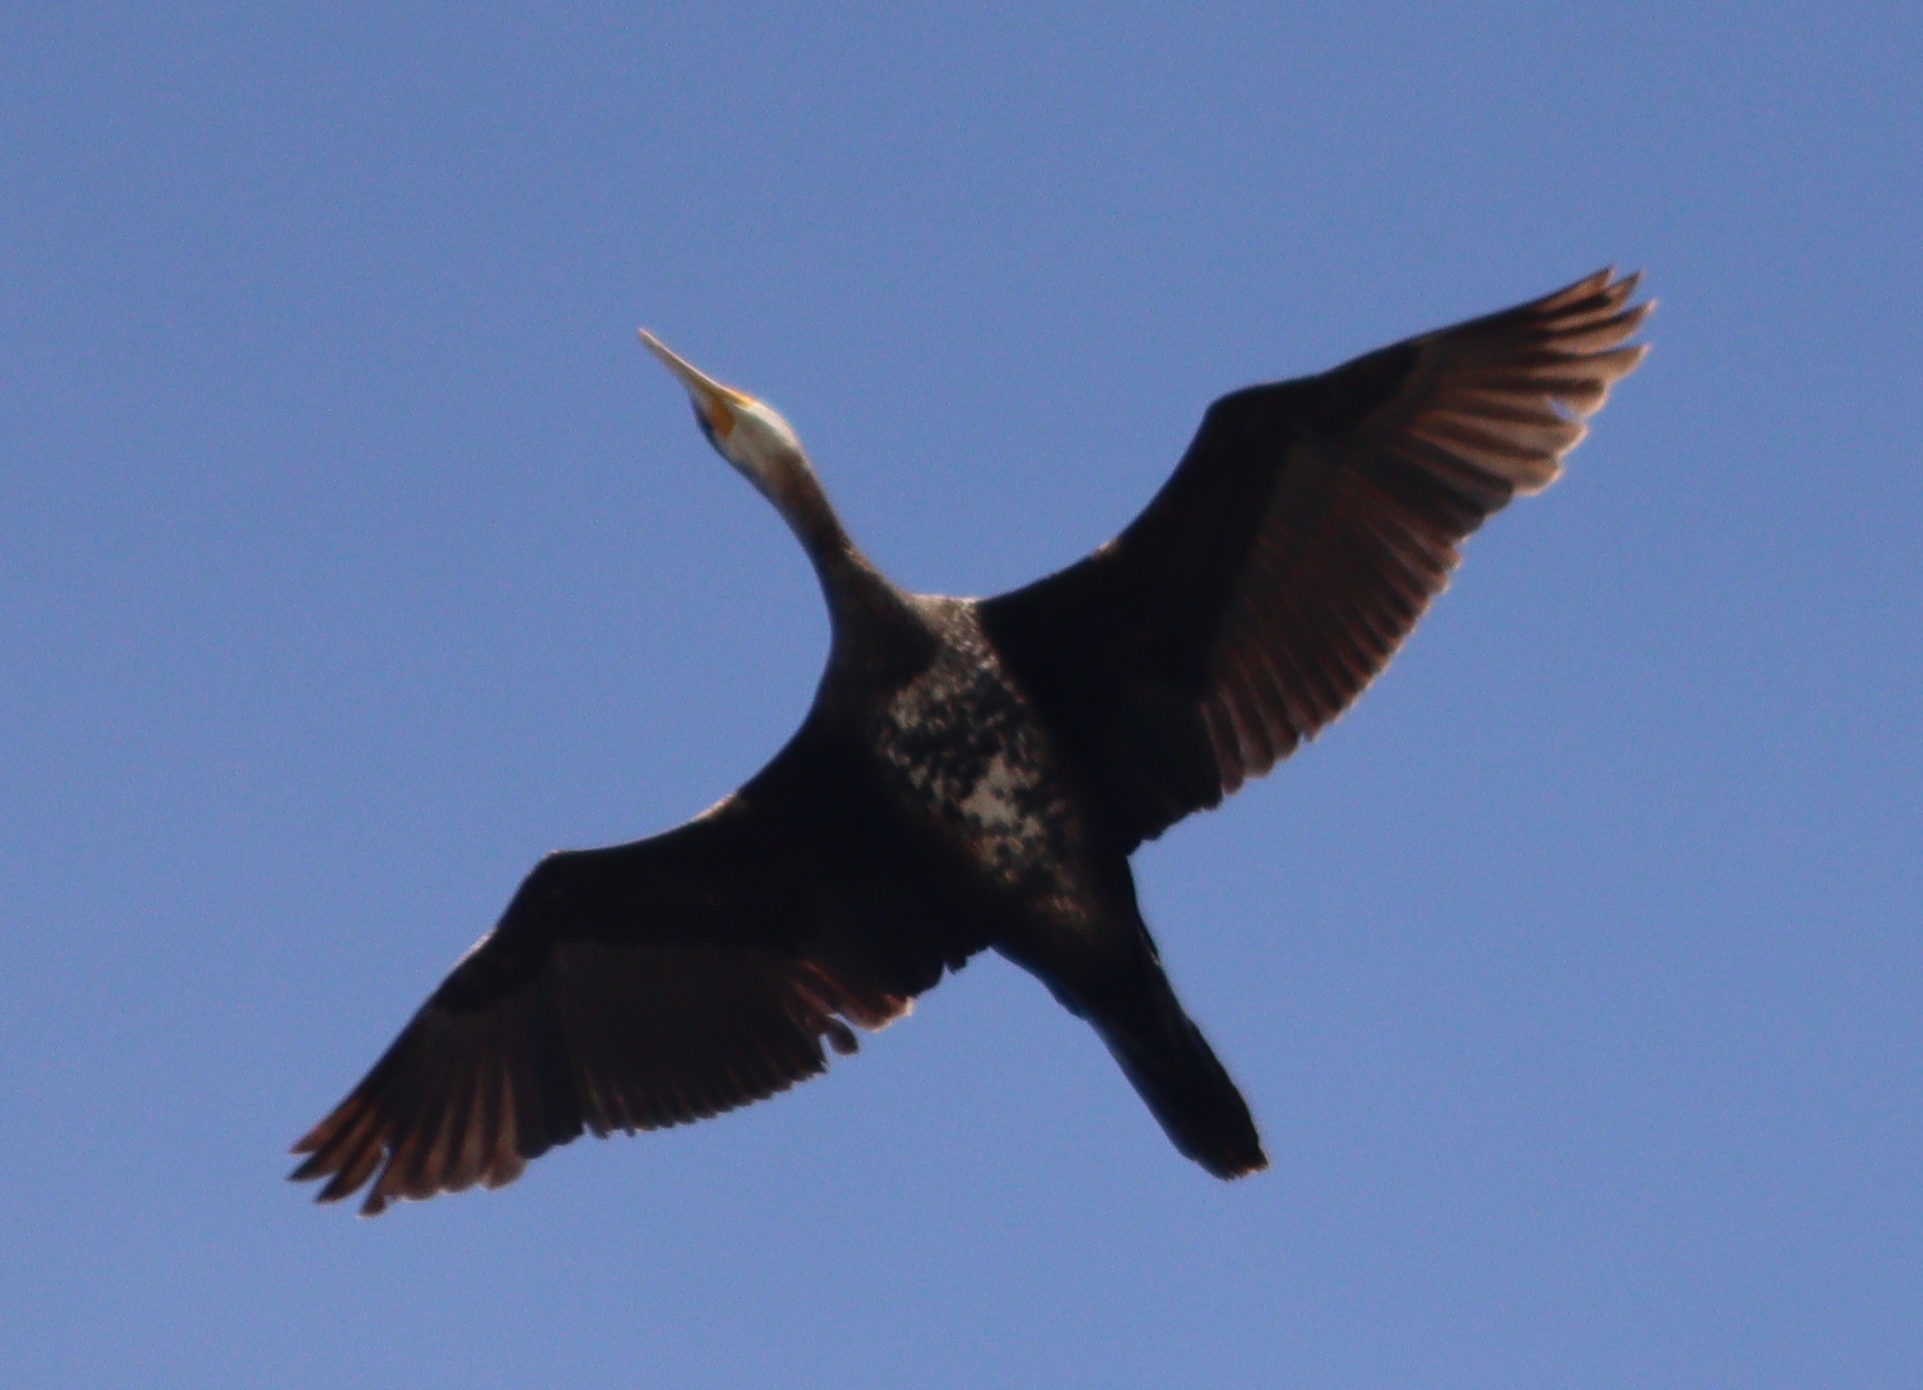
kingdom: Animalia
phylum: Chordata
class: Aves
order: Suliformes
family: Phalacrocoracidae
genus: Phalacrocorax
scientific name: Phalacrocorax carbo
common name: Great cormorant
